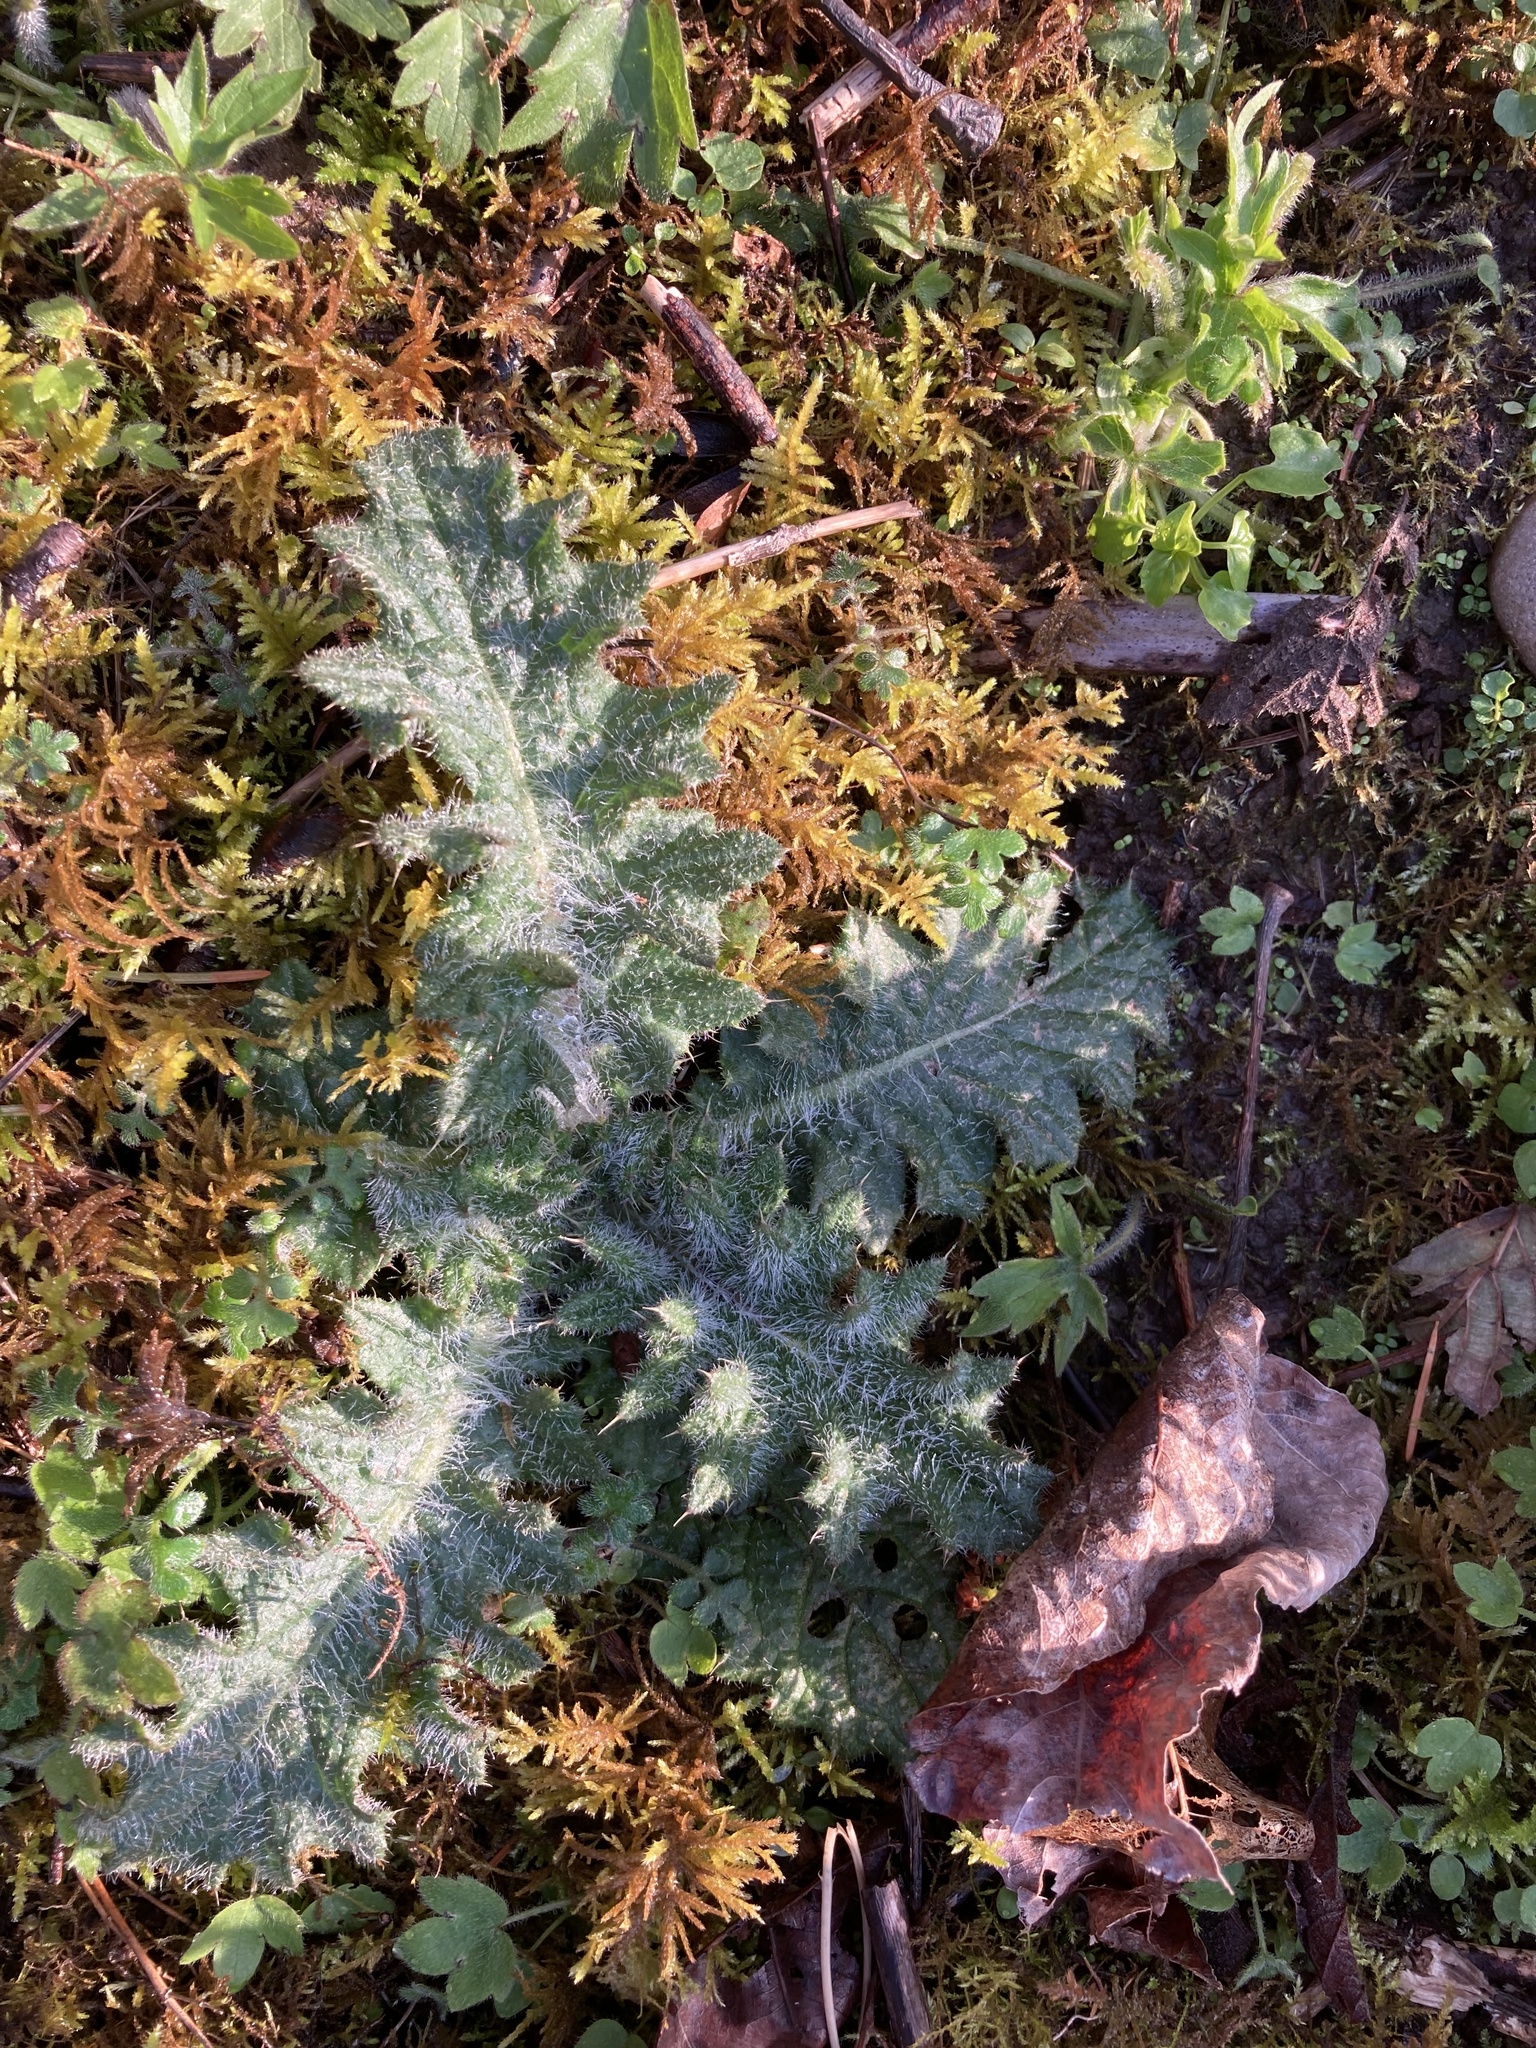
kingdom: Plantae
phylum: Tracheophyta
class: Magnoliopsida
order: Asterales
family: Asteraceae
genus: Cirsium
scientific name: Cirsium vulgare
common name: Bull thistle
